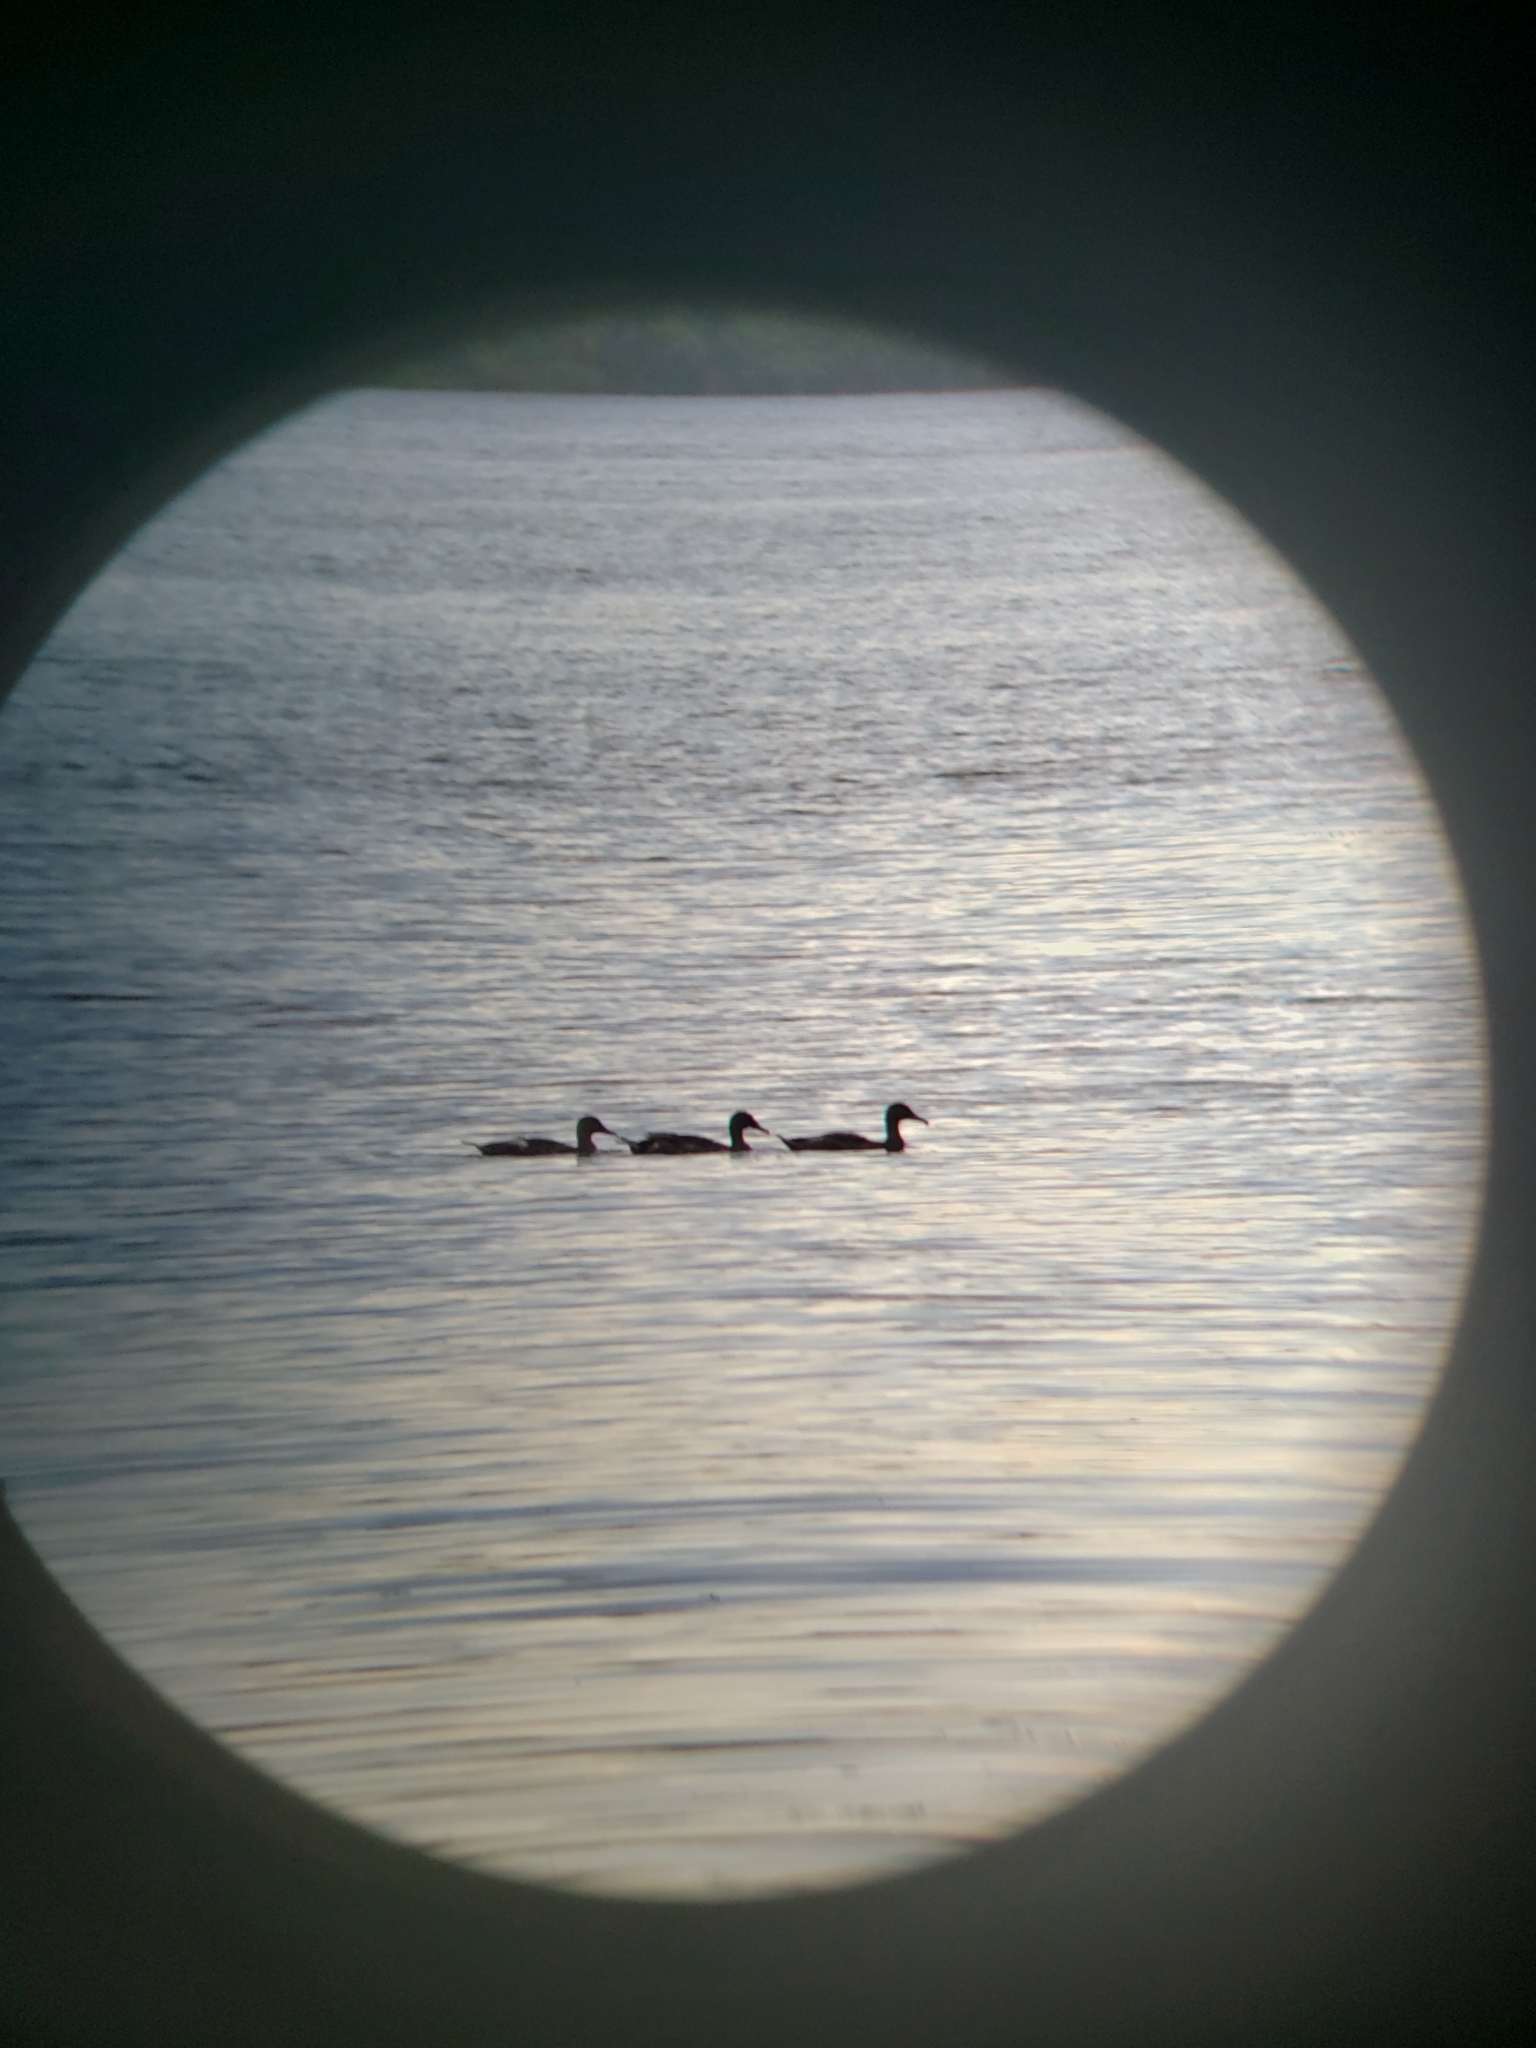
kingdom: Animalia
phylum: Chordata
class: Aves
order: Anseriformes
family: Anatidae
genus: Anas
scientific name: Anas platyrhynchos
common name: Mallard
